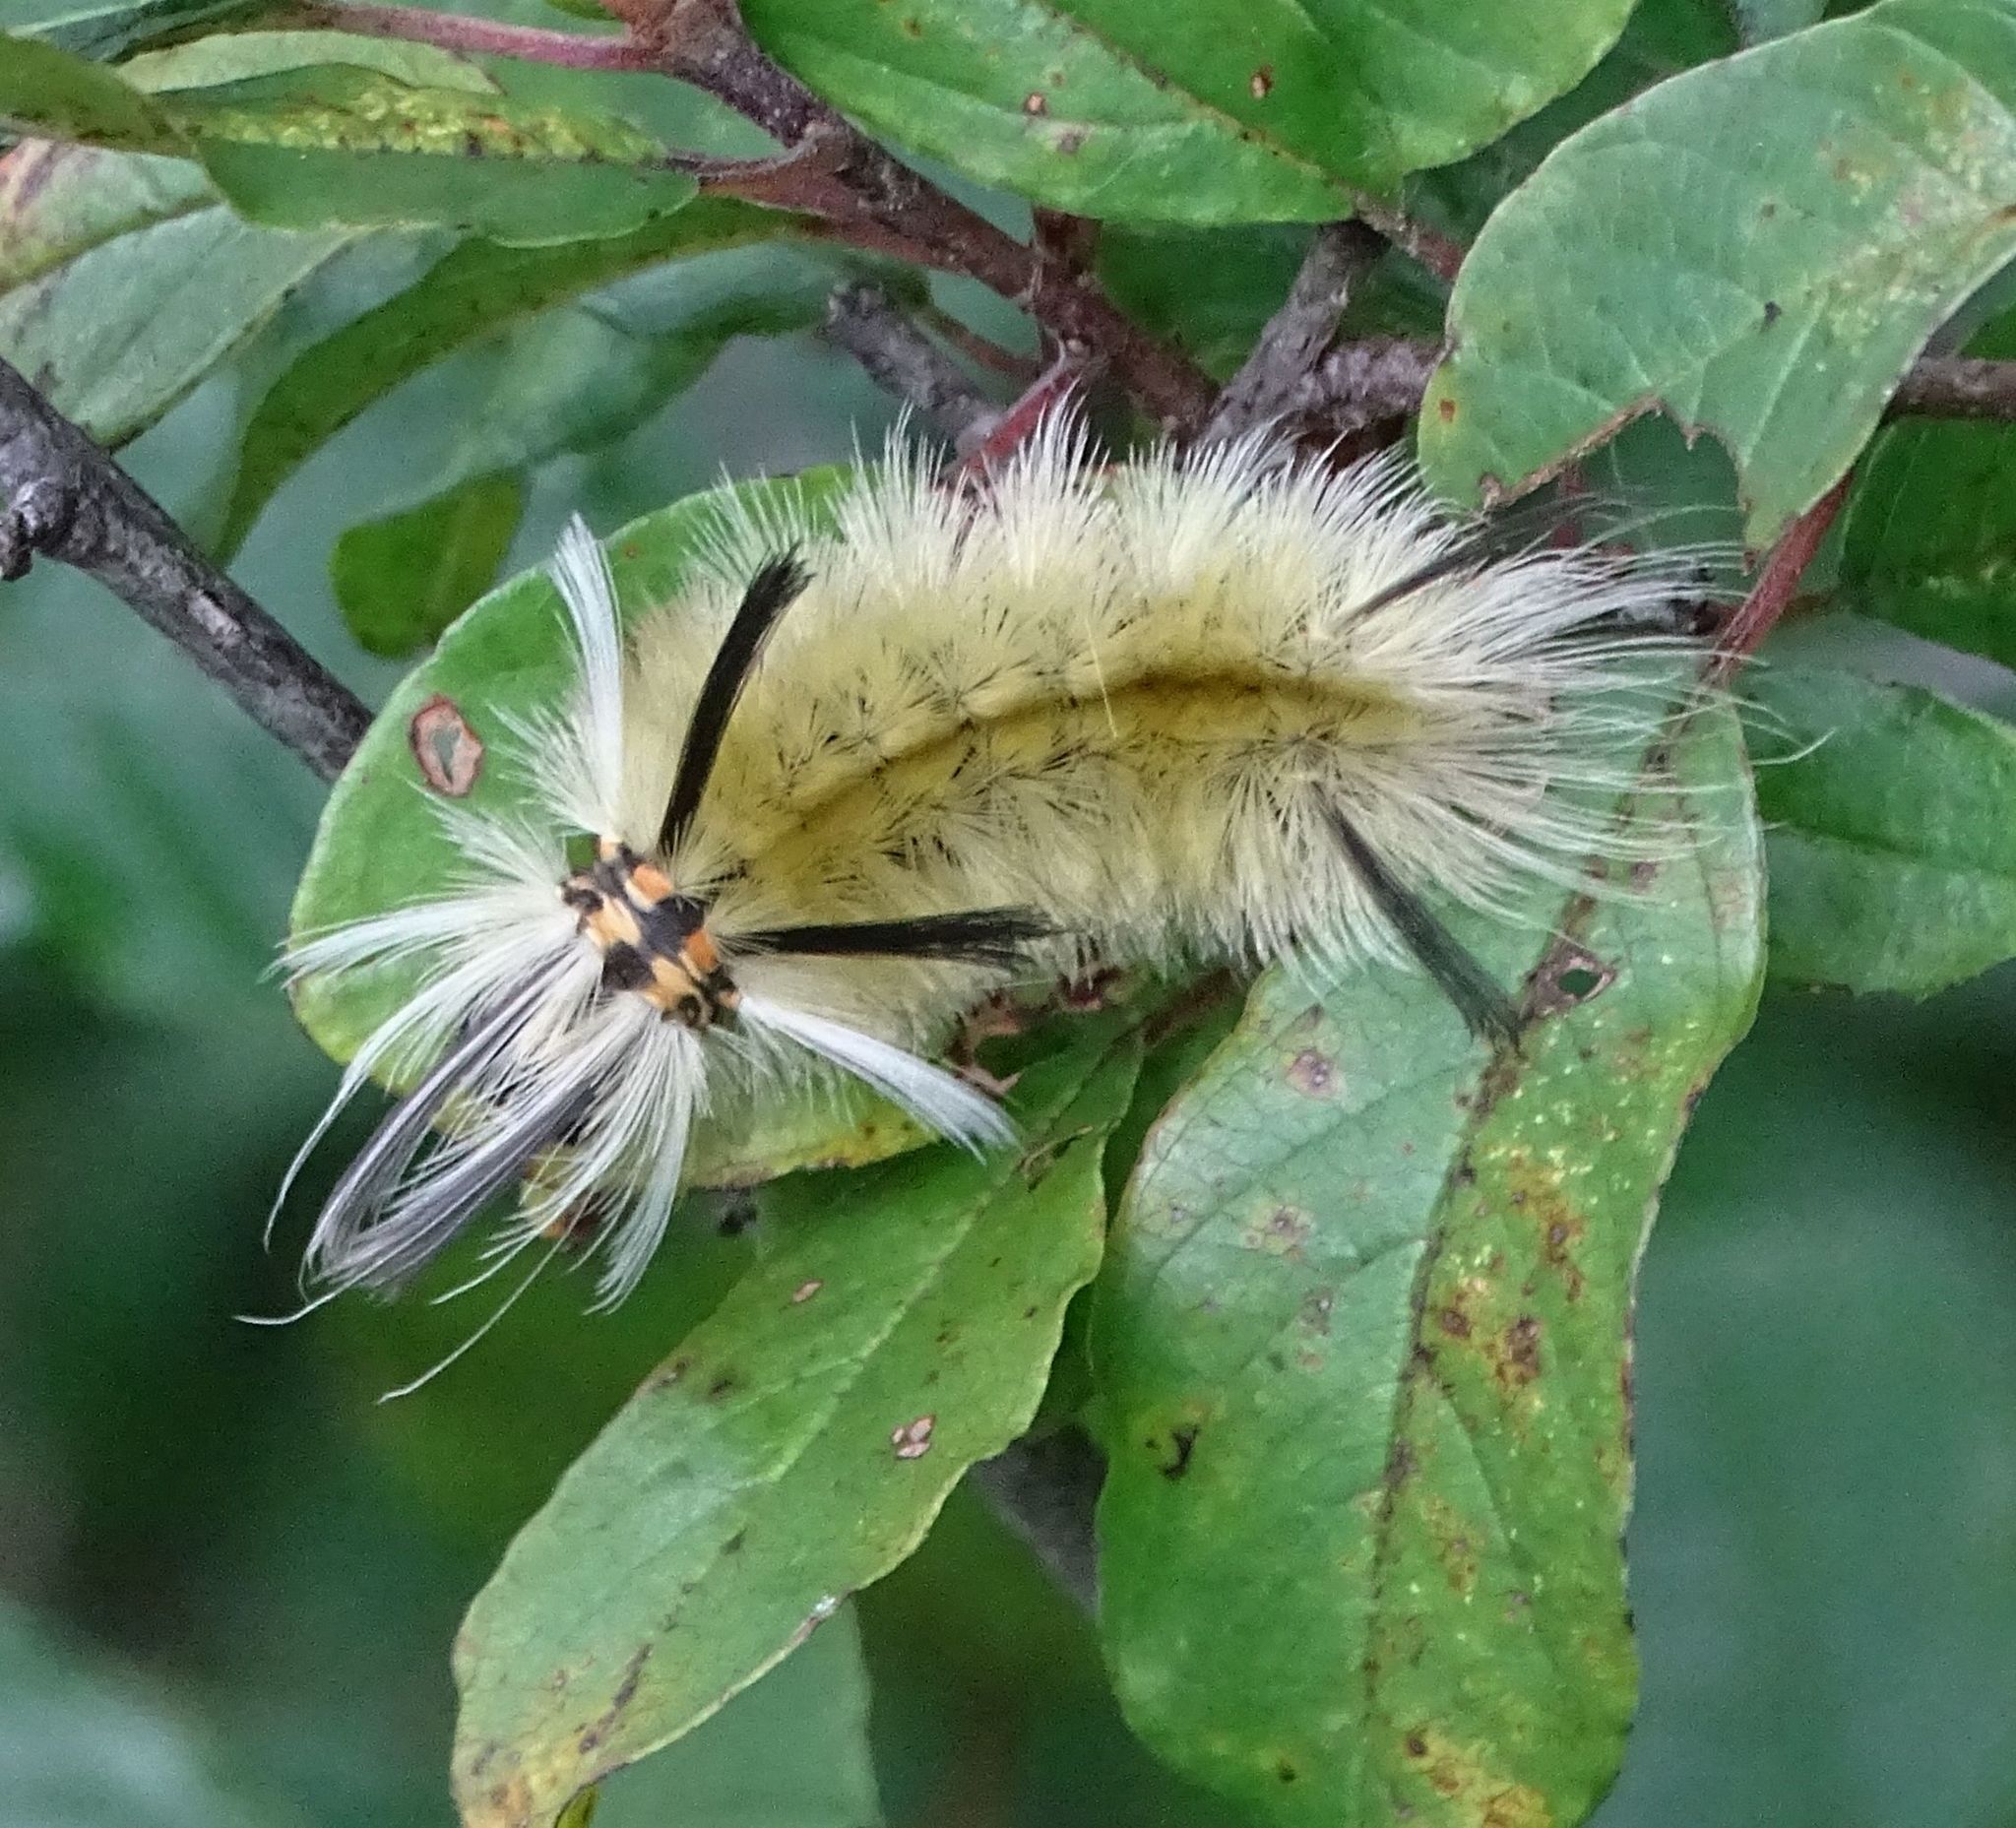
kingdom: Animalia
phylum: Arthropoda
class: Insecta
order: Lepidoptera
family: Erebidae
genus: Halysidota
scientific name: Halysidota tessellaris
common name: Banded tussock moth
